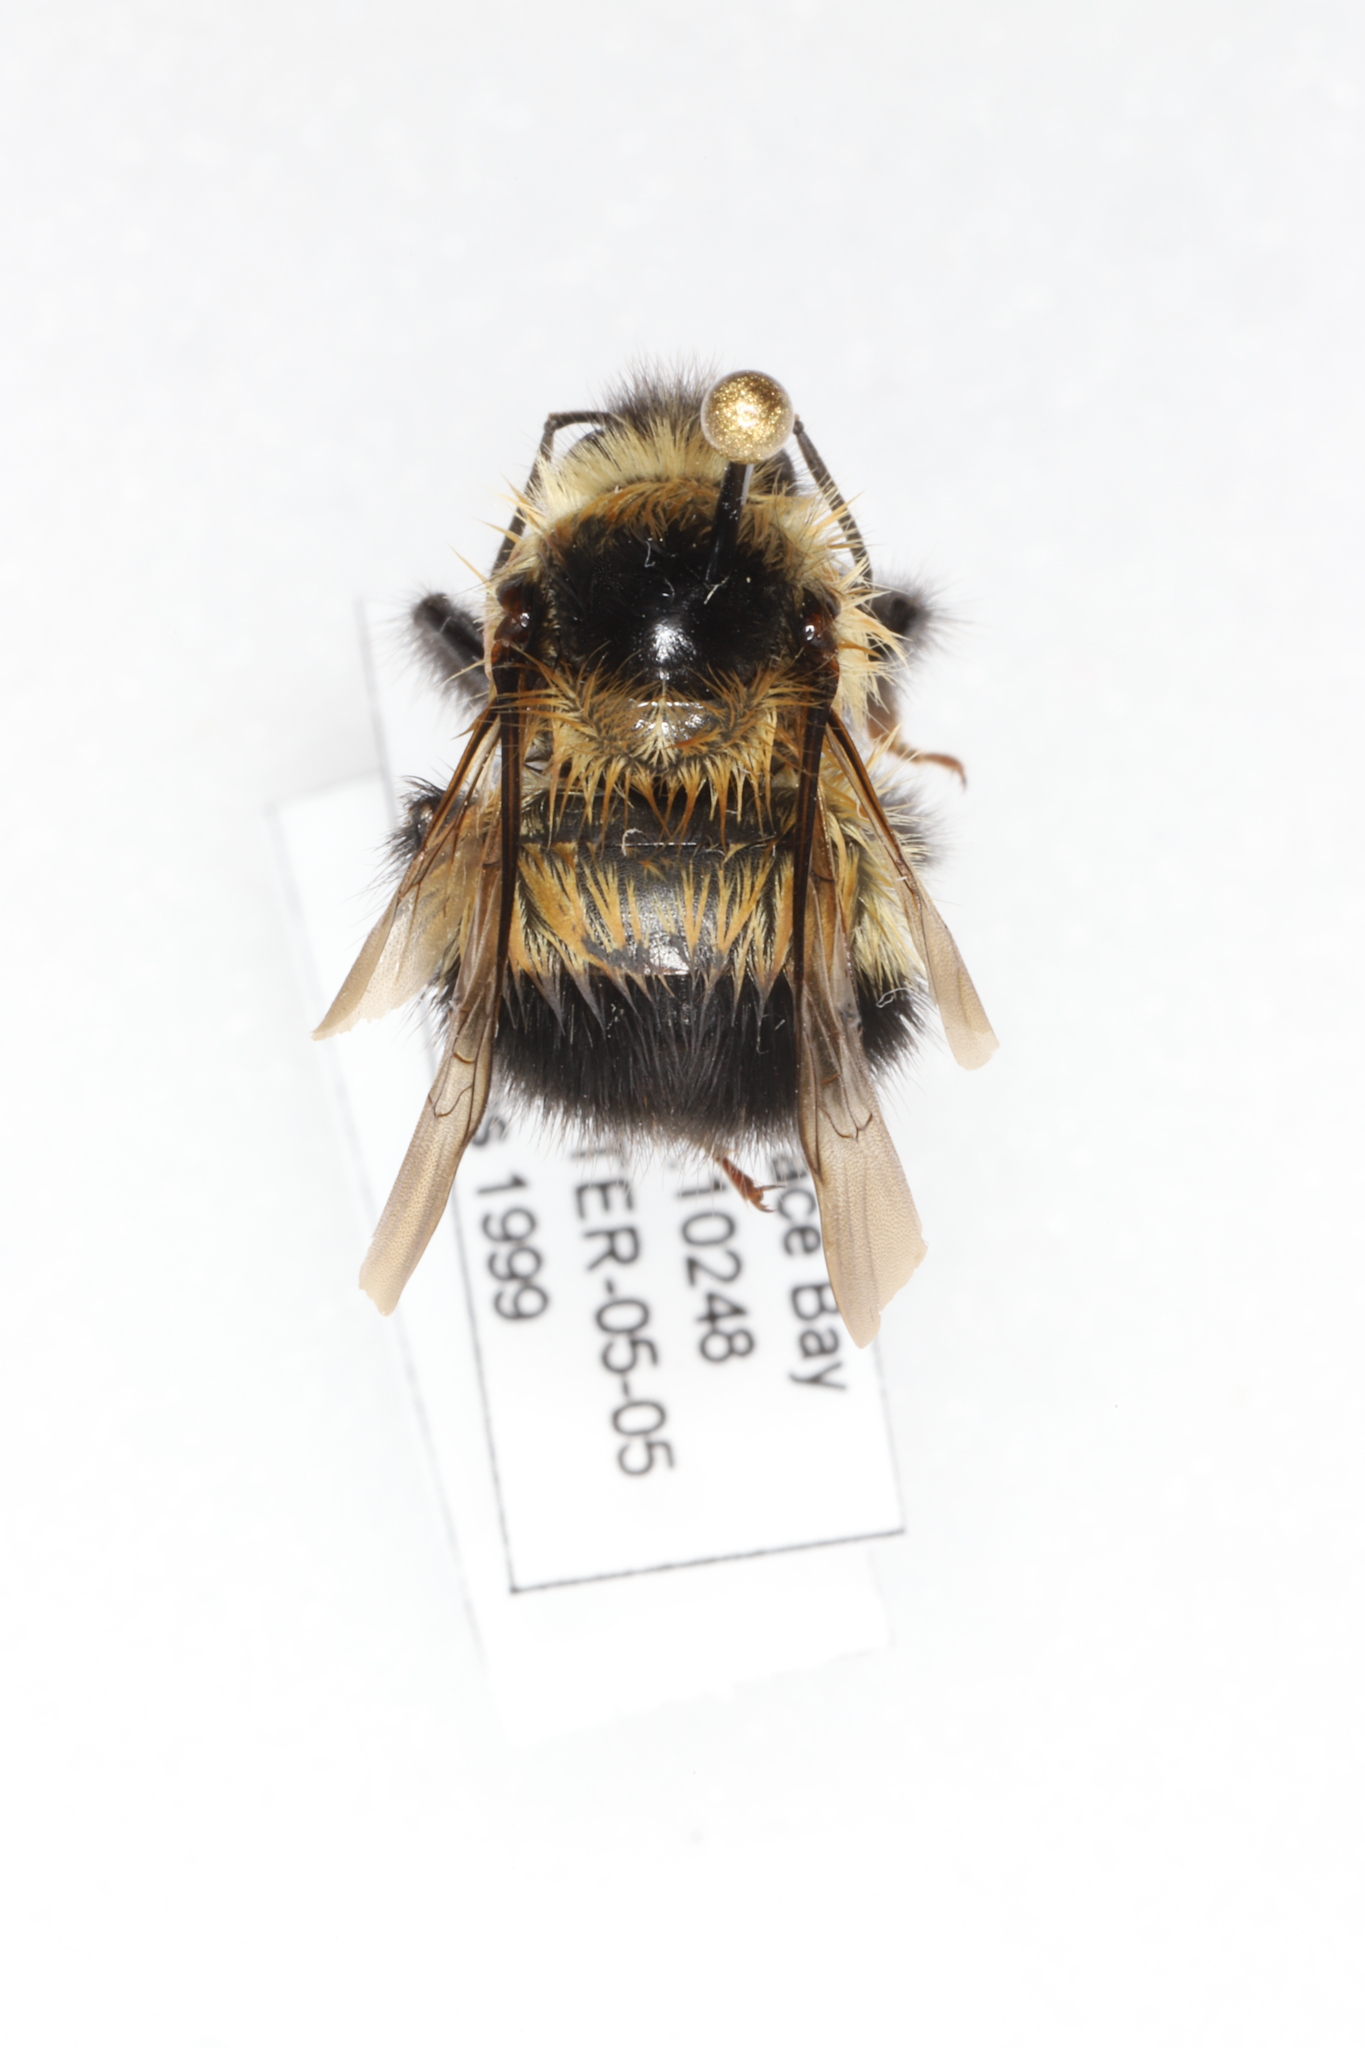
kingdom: Animalia
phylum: Arthropoda
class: Insecta
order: Hymenoptera
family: Apidae
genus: Bombus
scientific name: Bombus sandersoni
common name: Sanderson bumble bee
